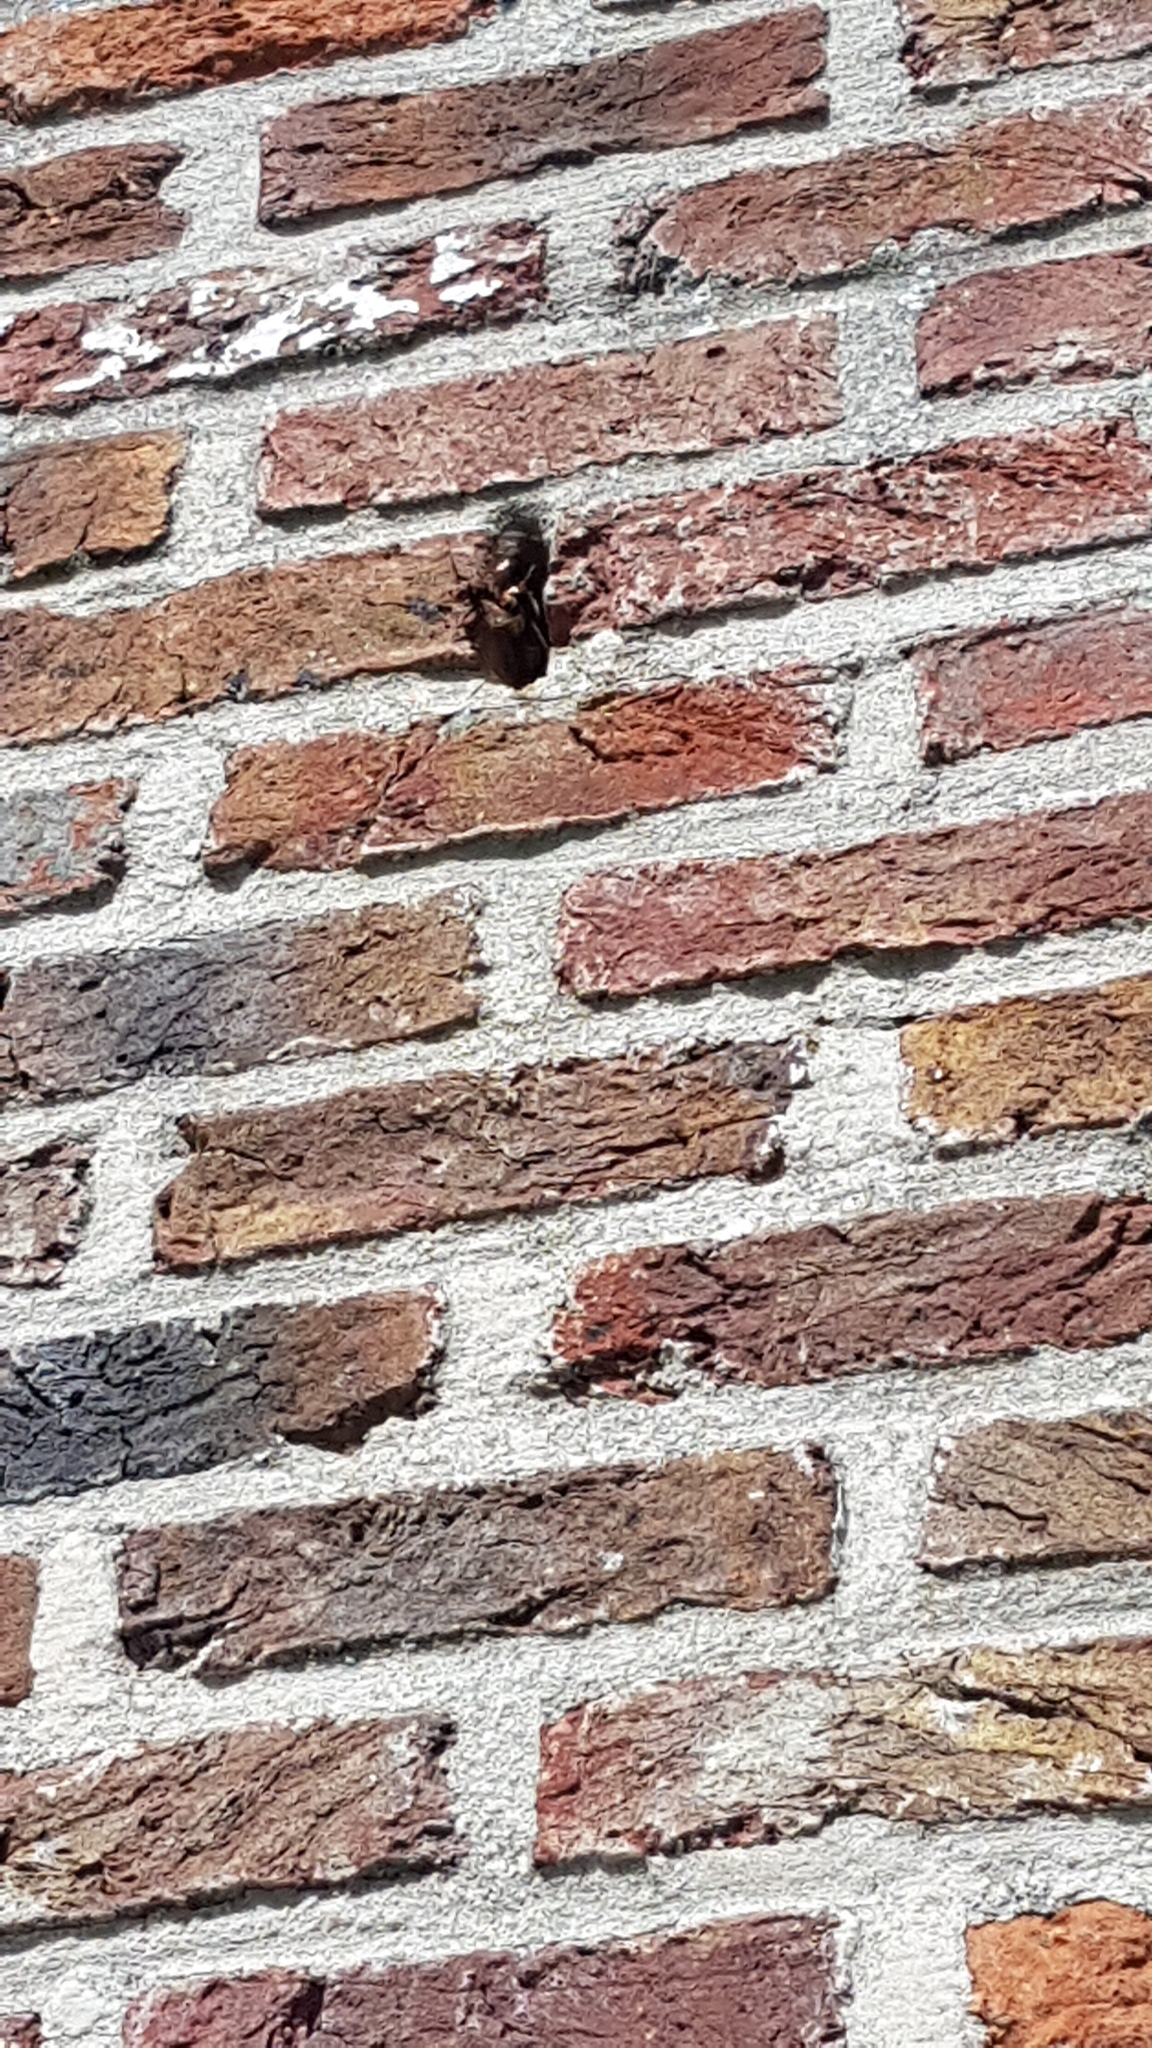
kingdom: Animalia
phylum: Arthropoda
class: Insecta
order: Hymenoptera
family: Vespidae
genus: Vespa
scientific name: Vespa crabro
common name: Hornet
